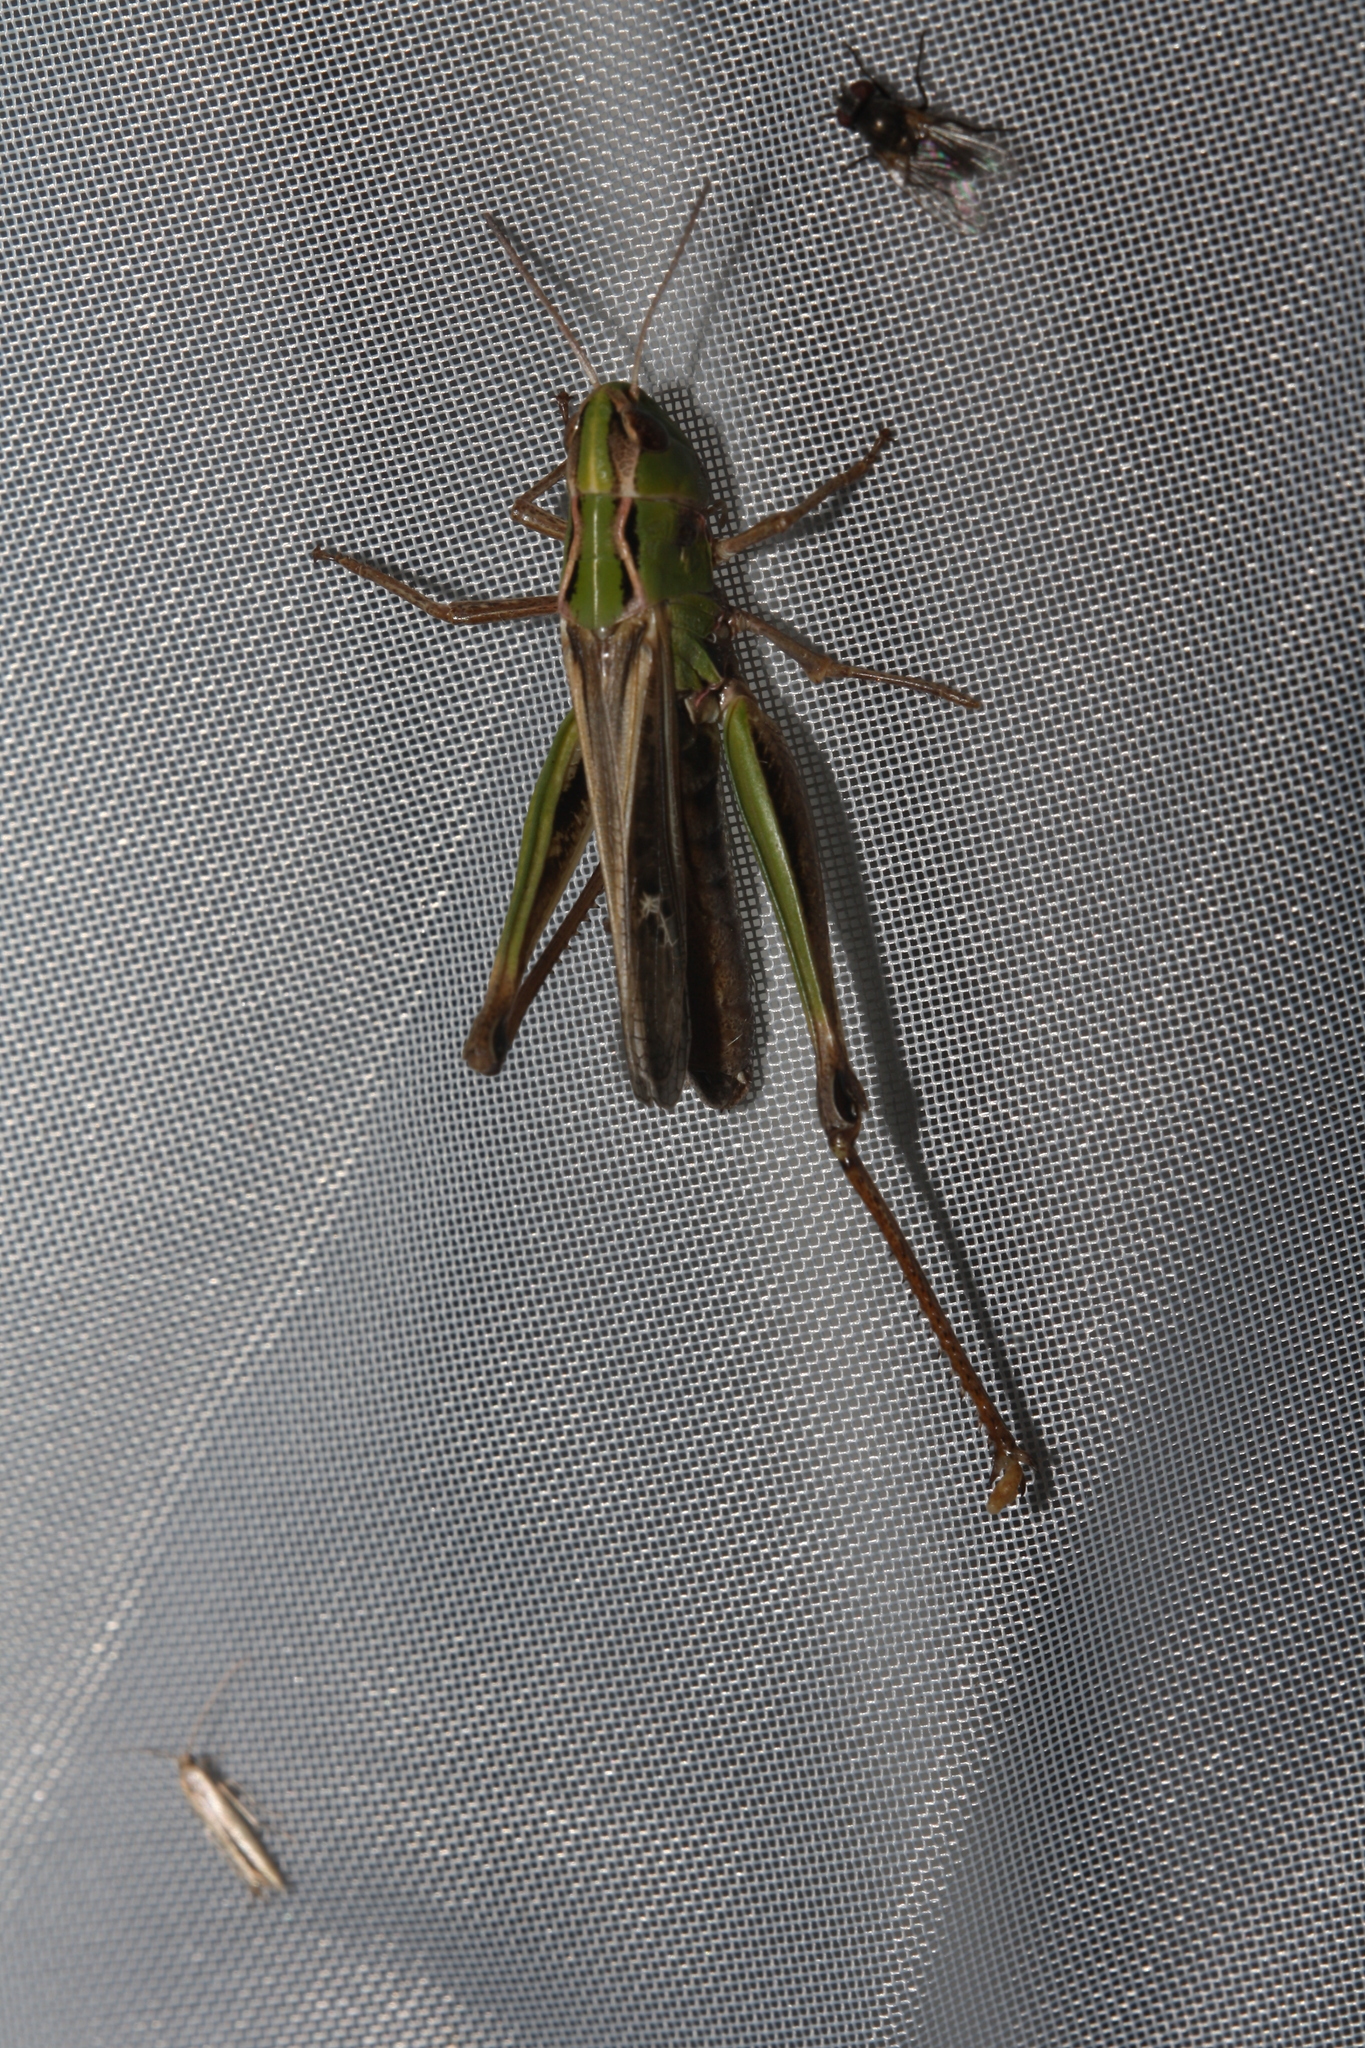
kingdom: Animalia
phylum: Arthropoda
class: Insecta
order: Orthoptera
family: Acrididae
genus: Stenobothrus
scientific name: Stenobothrus lineatus
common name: Stripe-winged grasshopper
